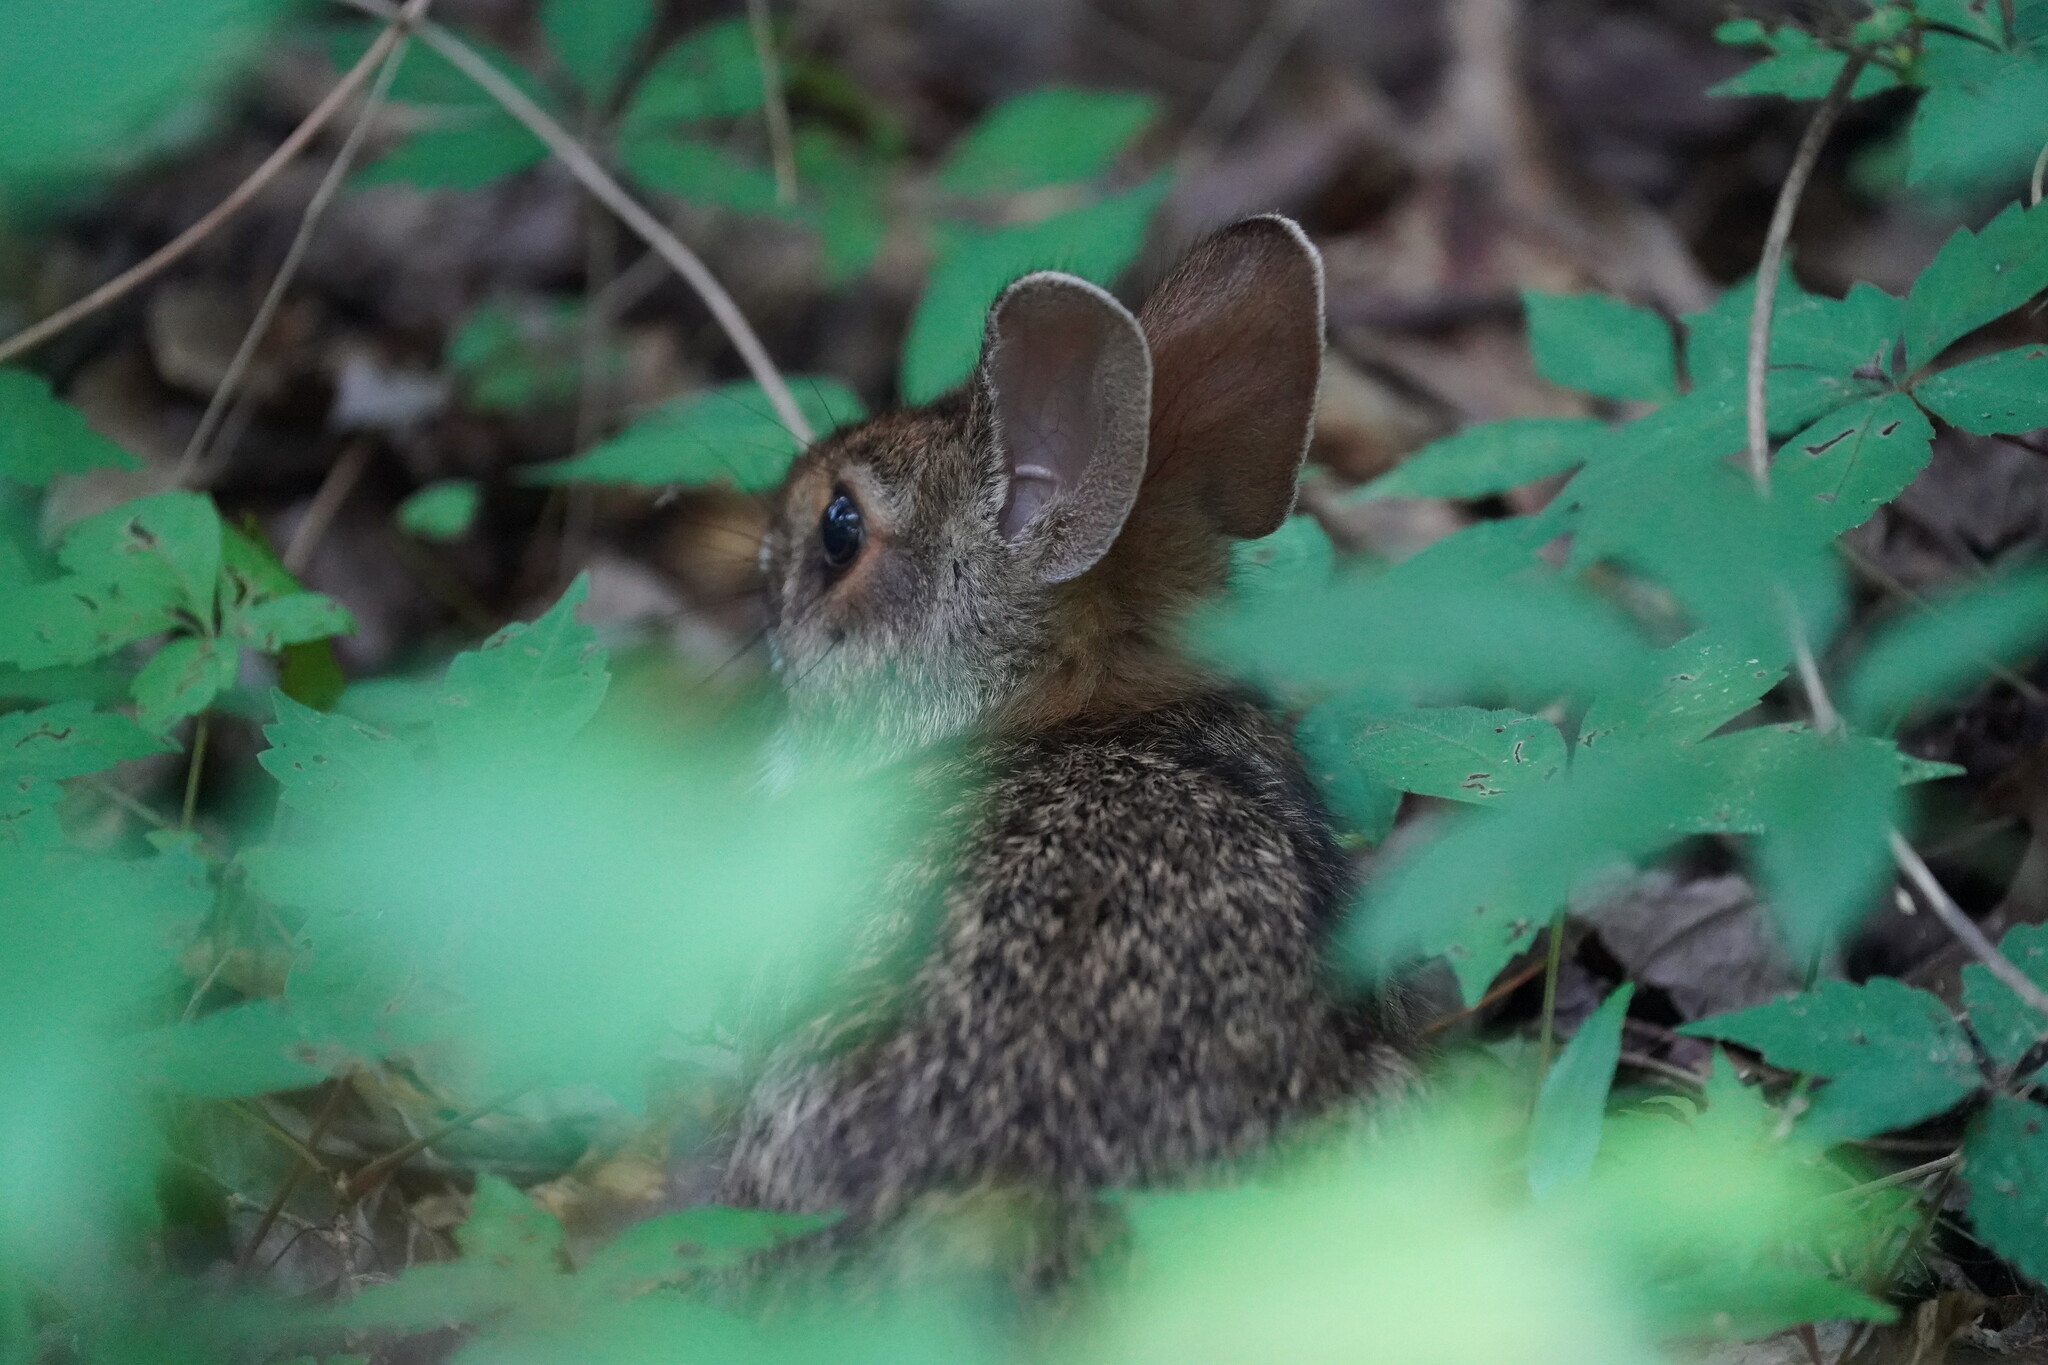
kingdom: Animalia
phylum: Chordata
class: Mammalia
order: Lagomorpha
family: Leporidae
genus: Sylvilagus
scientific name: Sylvilagus aquaticus
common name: Swamp rabbit
